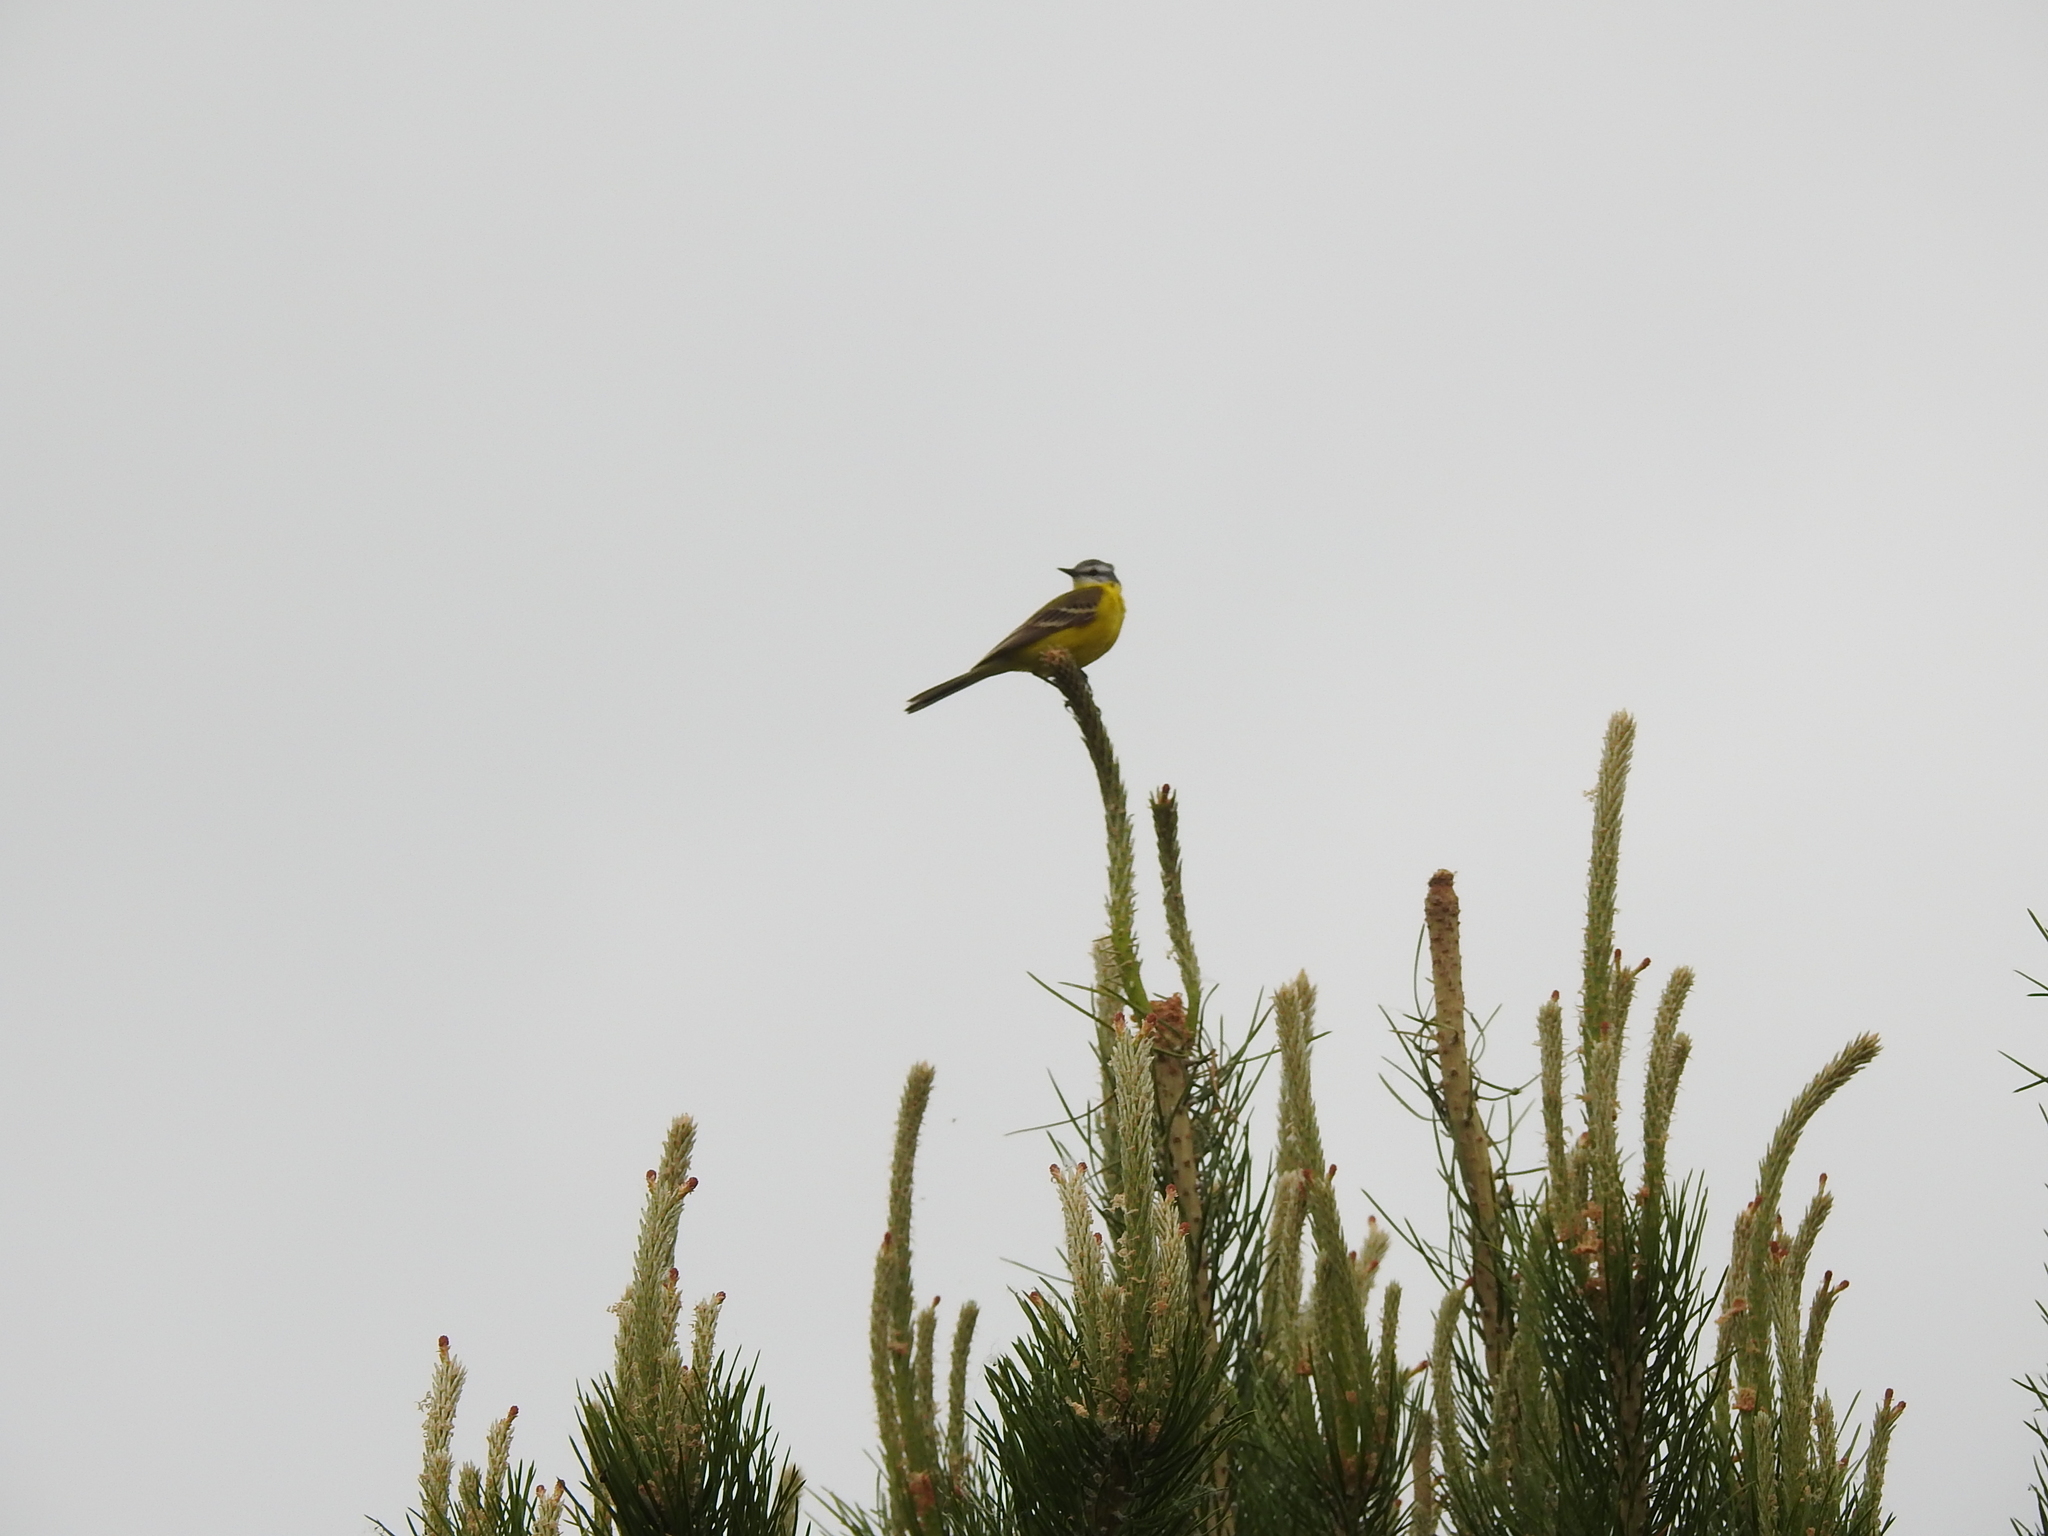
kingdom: Animalia
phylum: Chordata
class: Aves
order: Passeriformes
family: Motacillidae
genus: Motacilla
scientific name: Motacilla flava
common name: Western yellow wagtail
